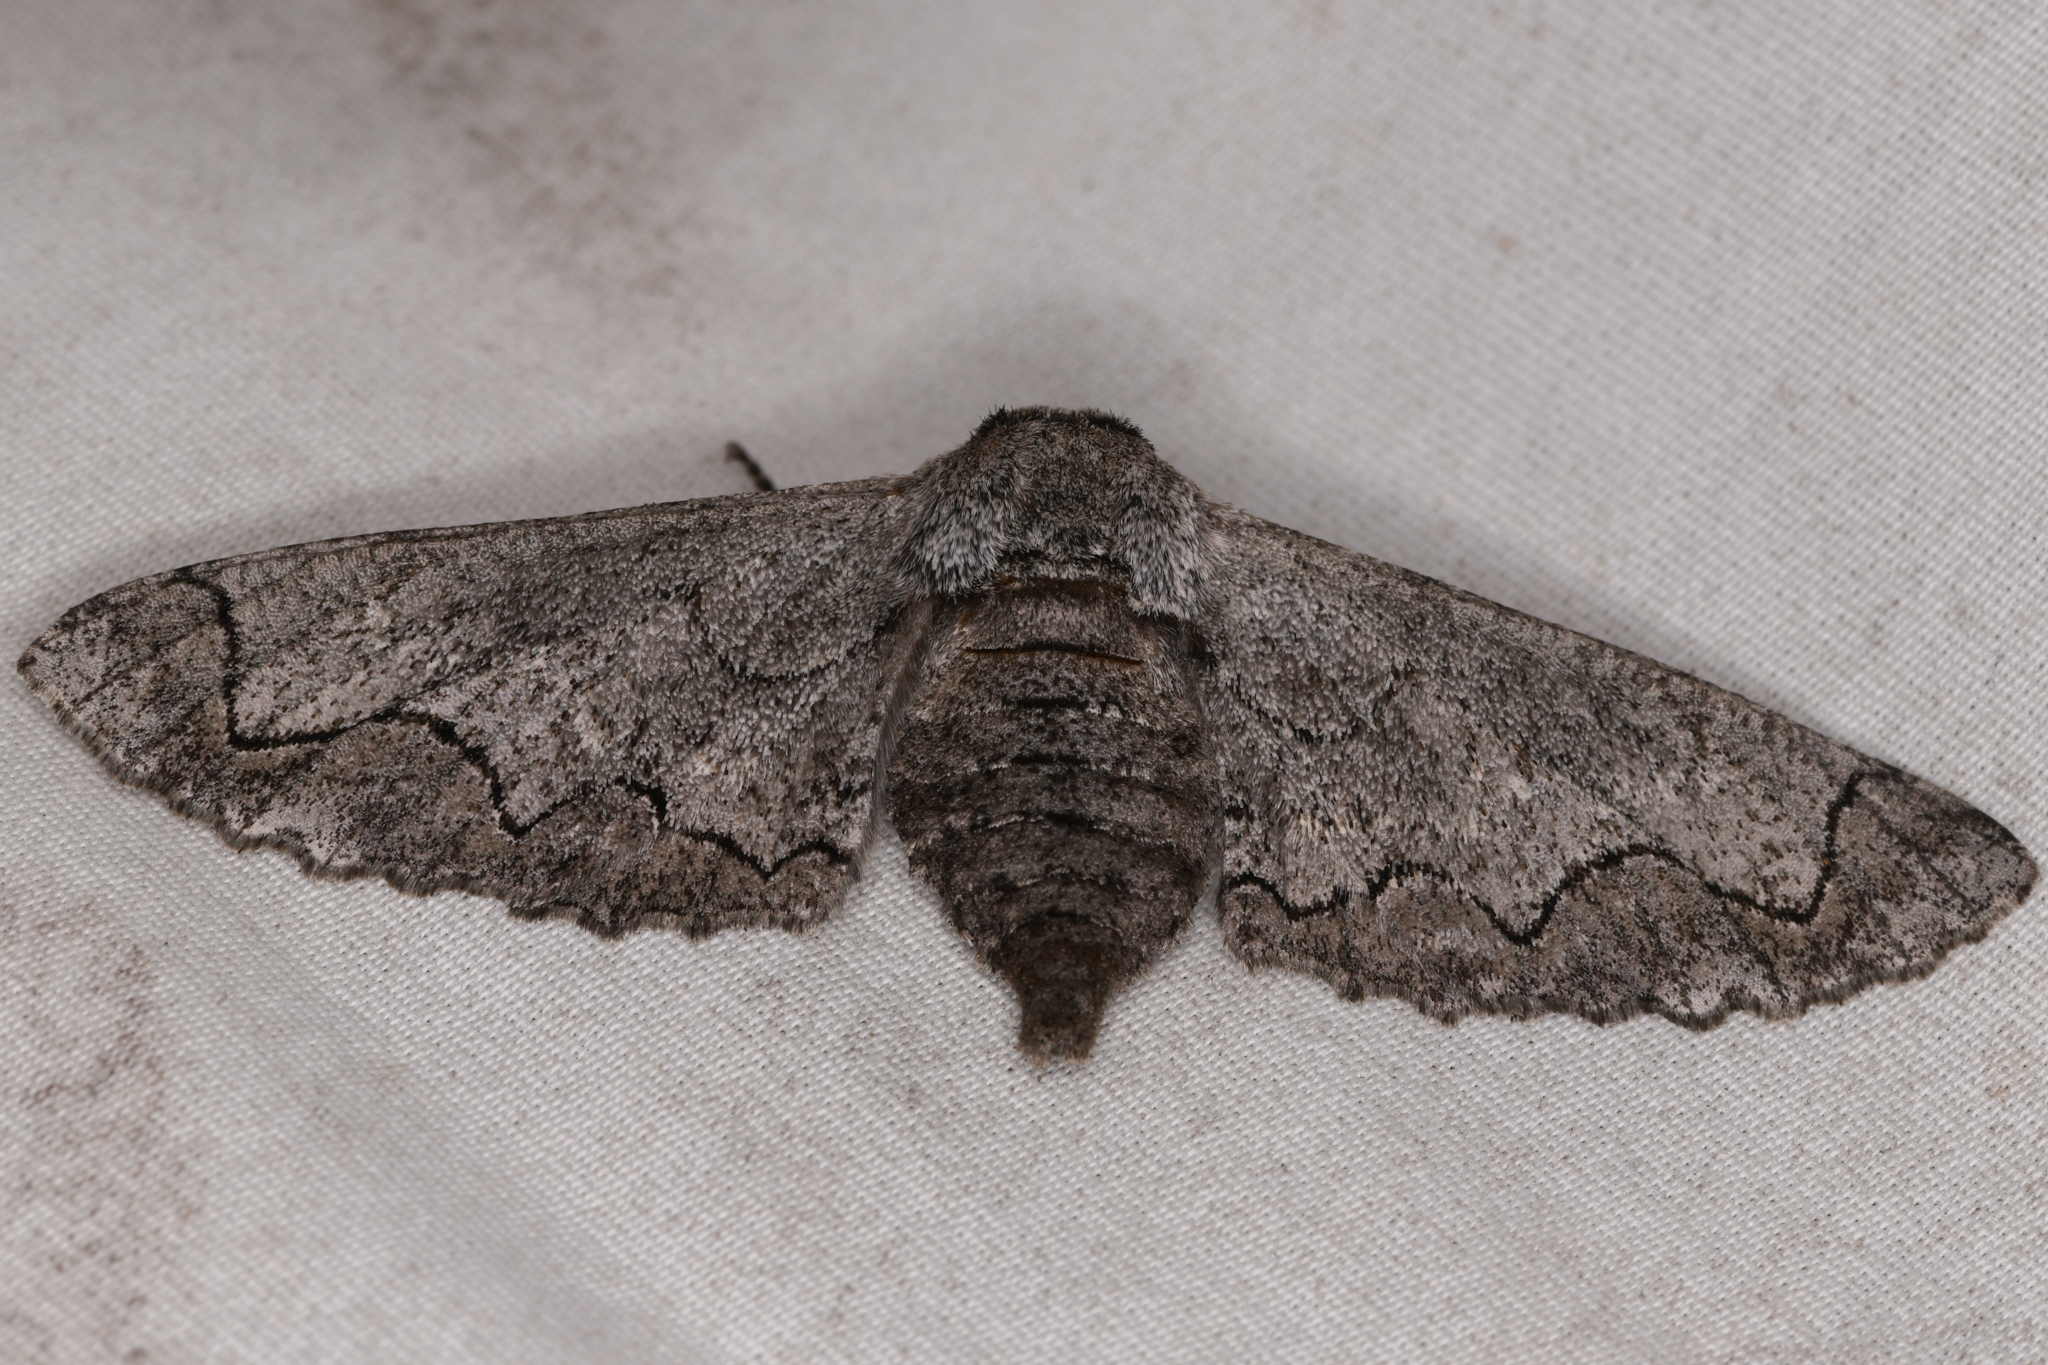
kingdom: Animalia
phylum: Arthropoda
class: Insecta
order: Lepidoptera
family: Geometridae
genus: Biston
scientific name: Biston sinuata
